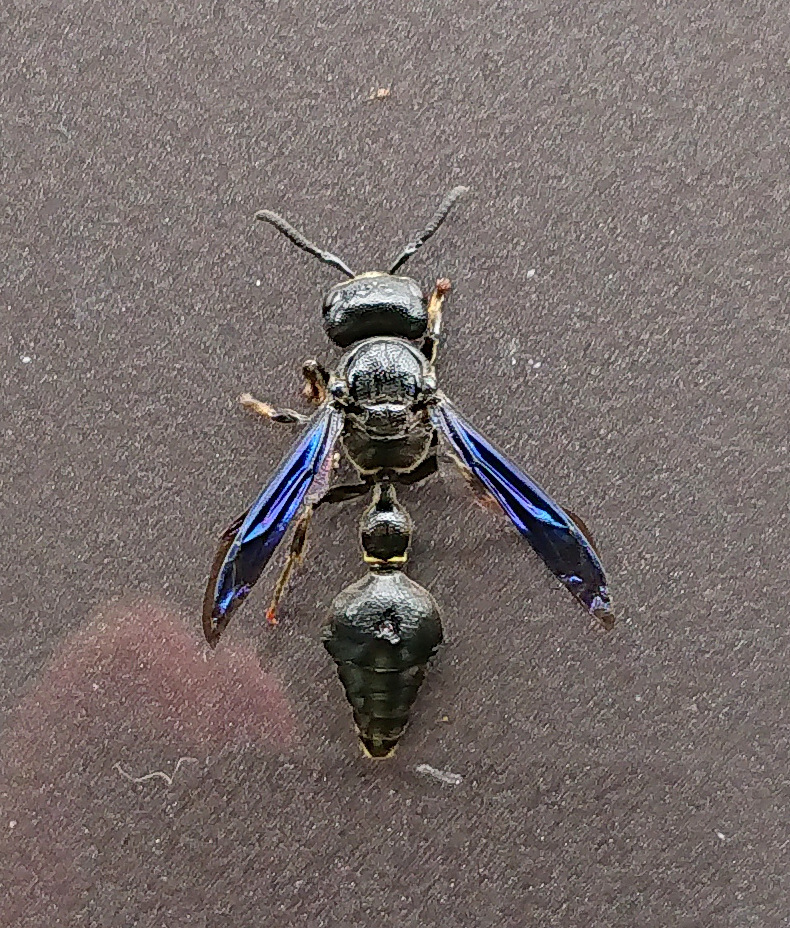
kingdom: Animalia
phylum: Arthropoda
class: Insecta
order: Hymenoptera
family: Eumenidae
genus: Zethus
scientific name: Zethus spinipes
